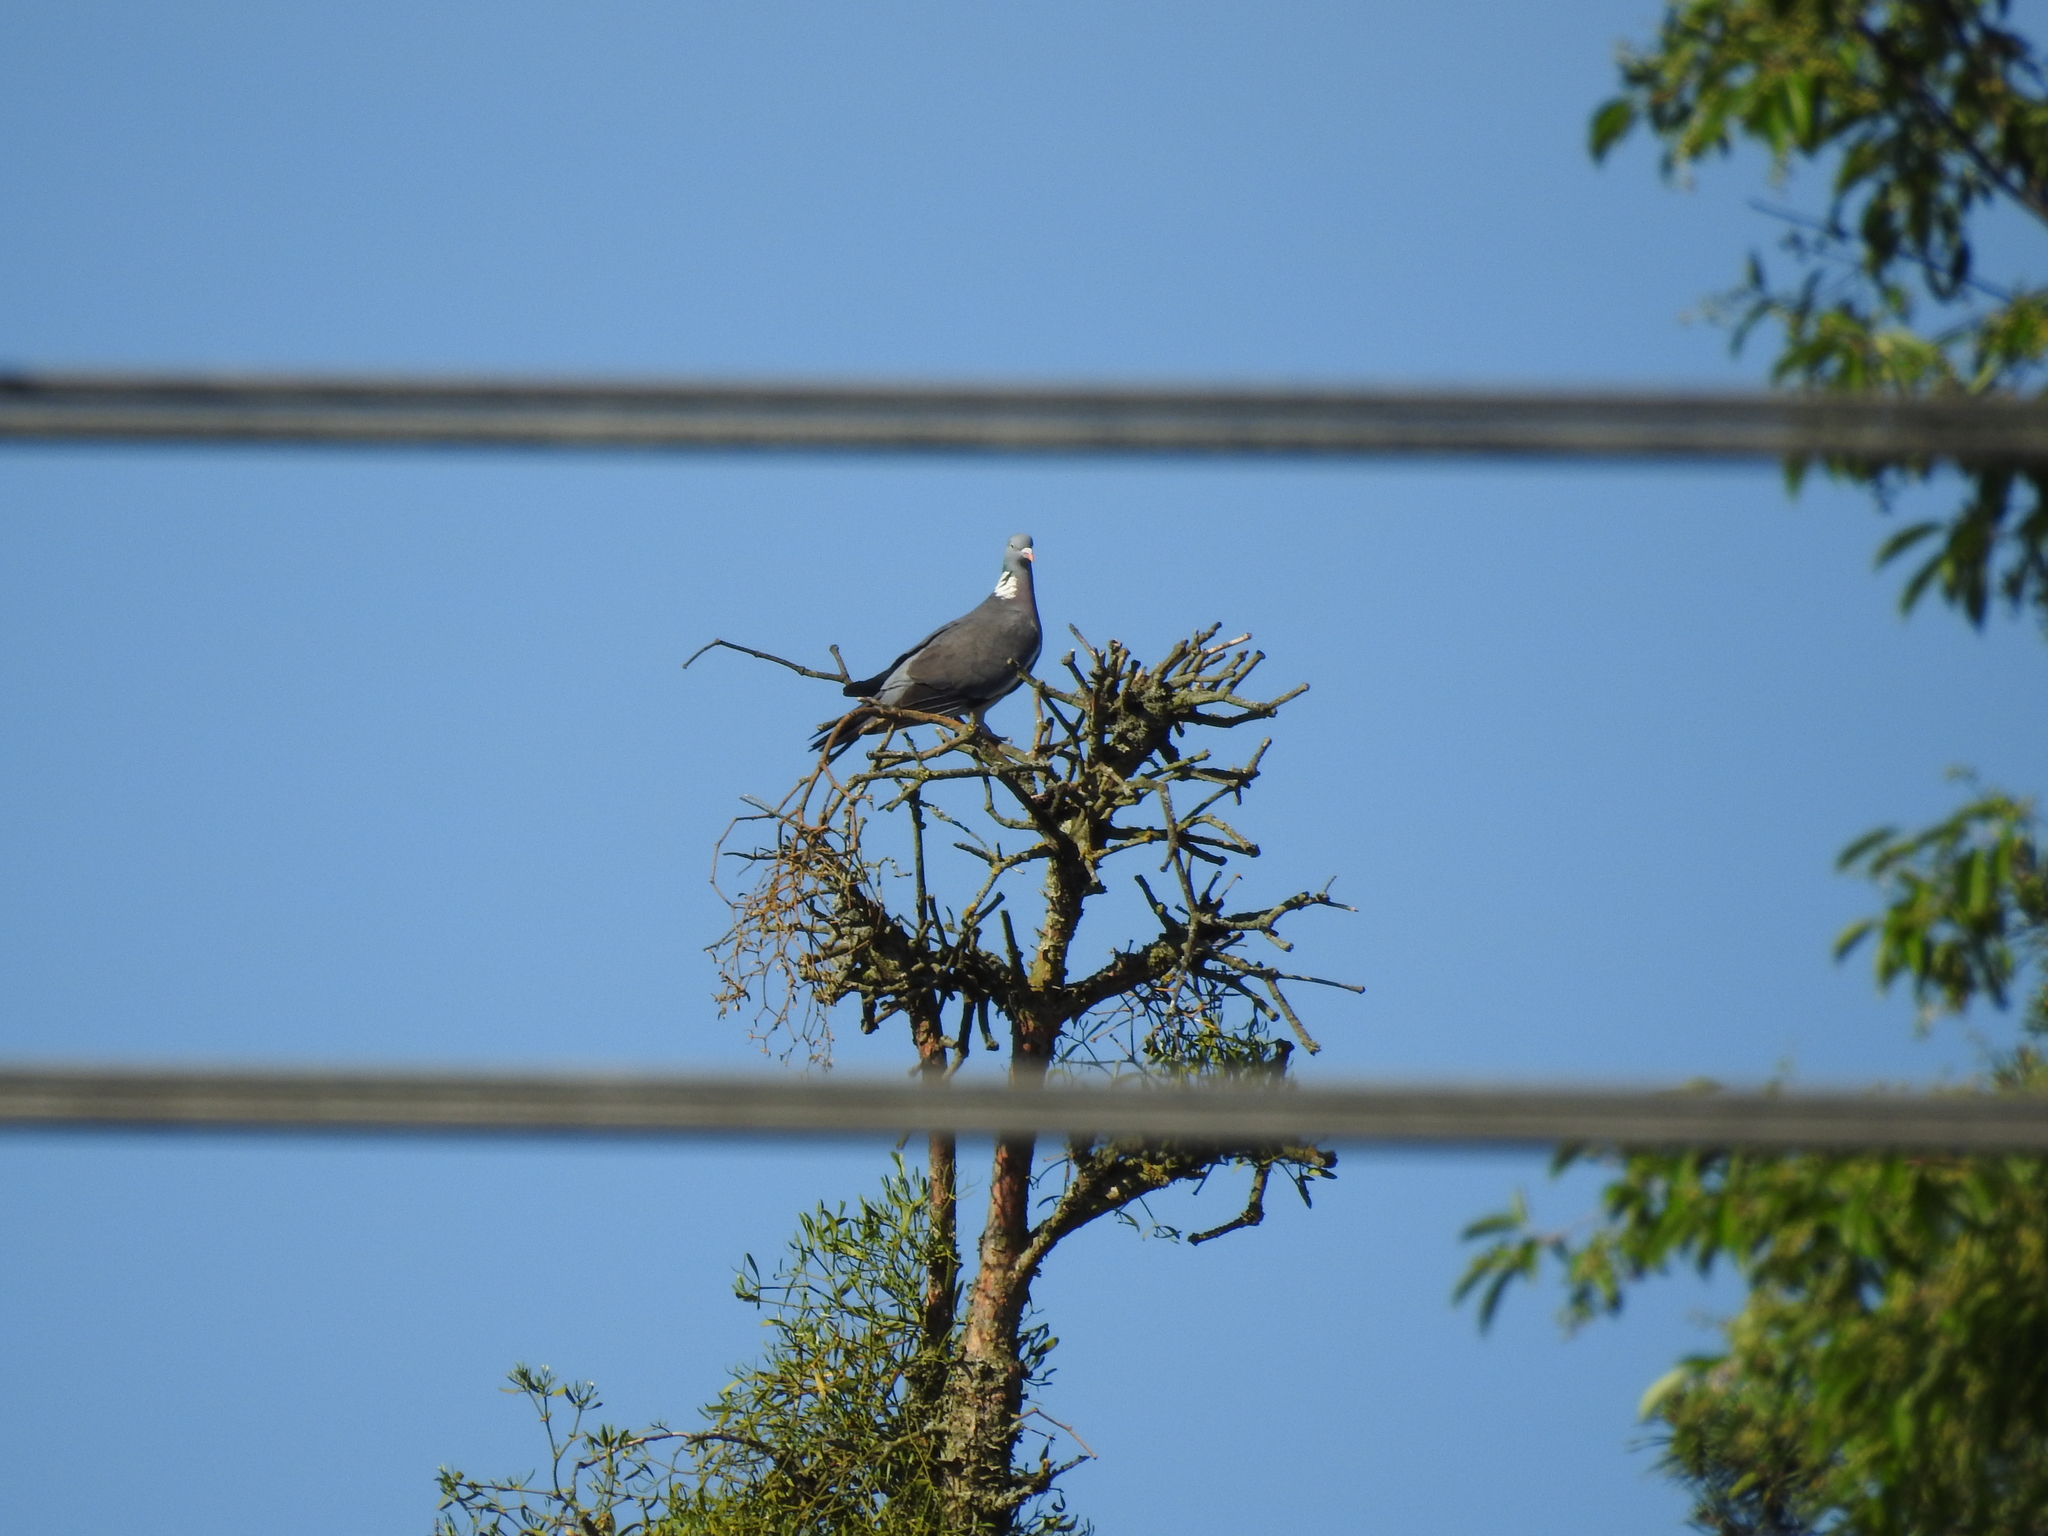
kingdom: Animalia
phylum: Chordata
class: Aves
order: Columbiformes
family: Columbidae
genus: Columba
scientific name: Columba palumbus
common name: Common wood pigeon
